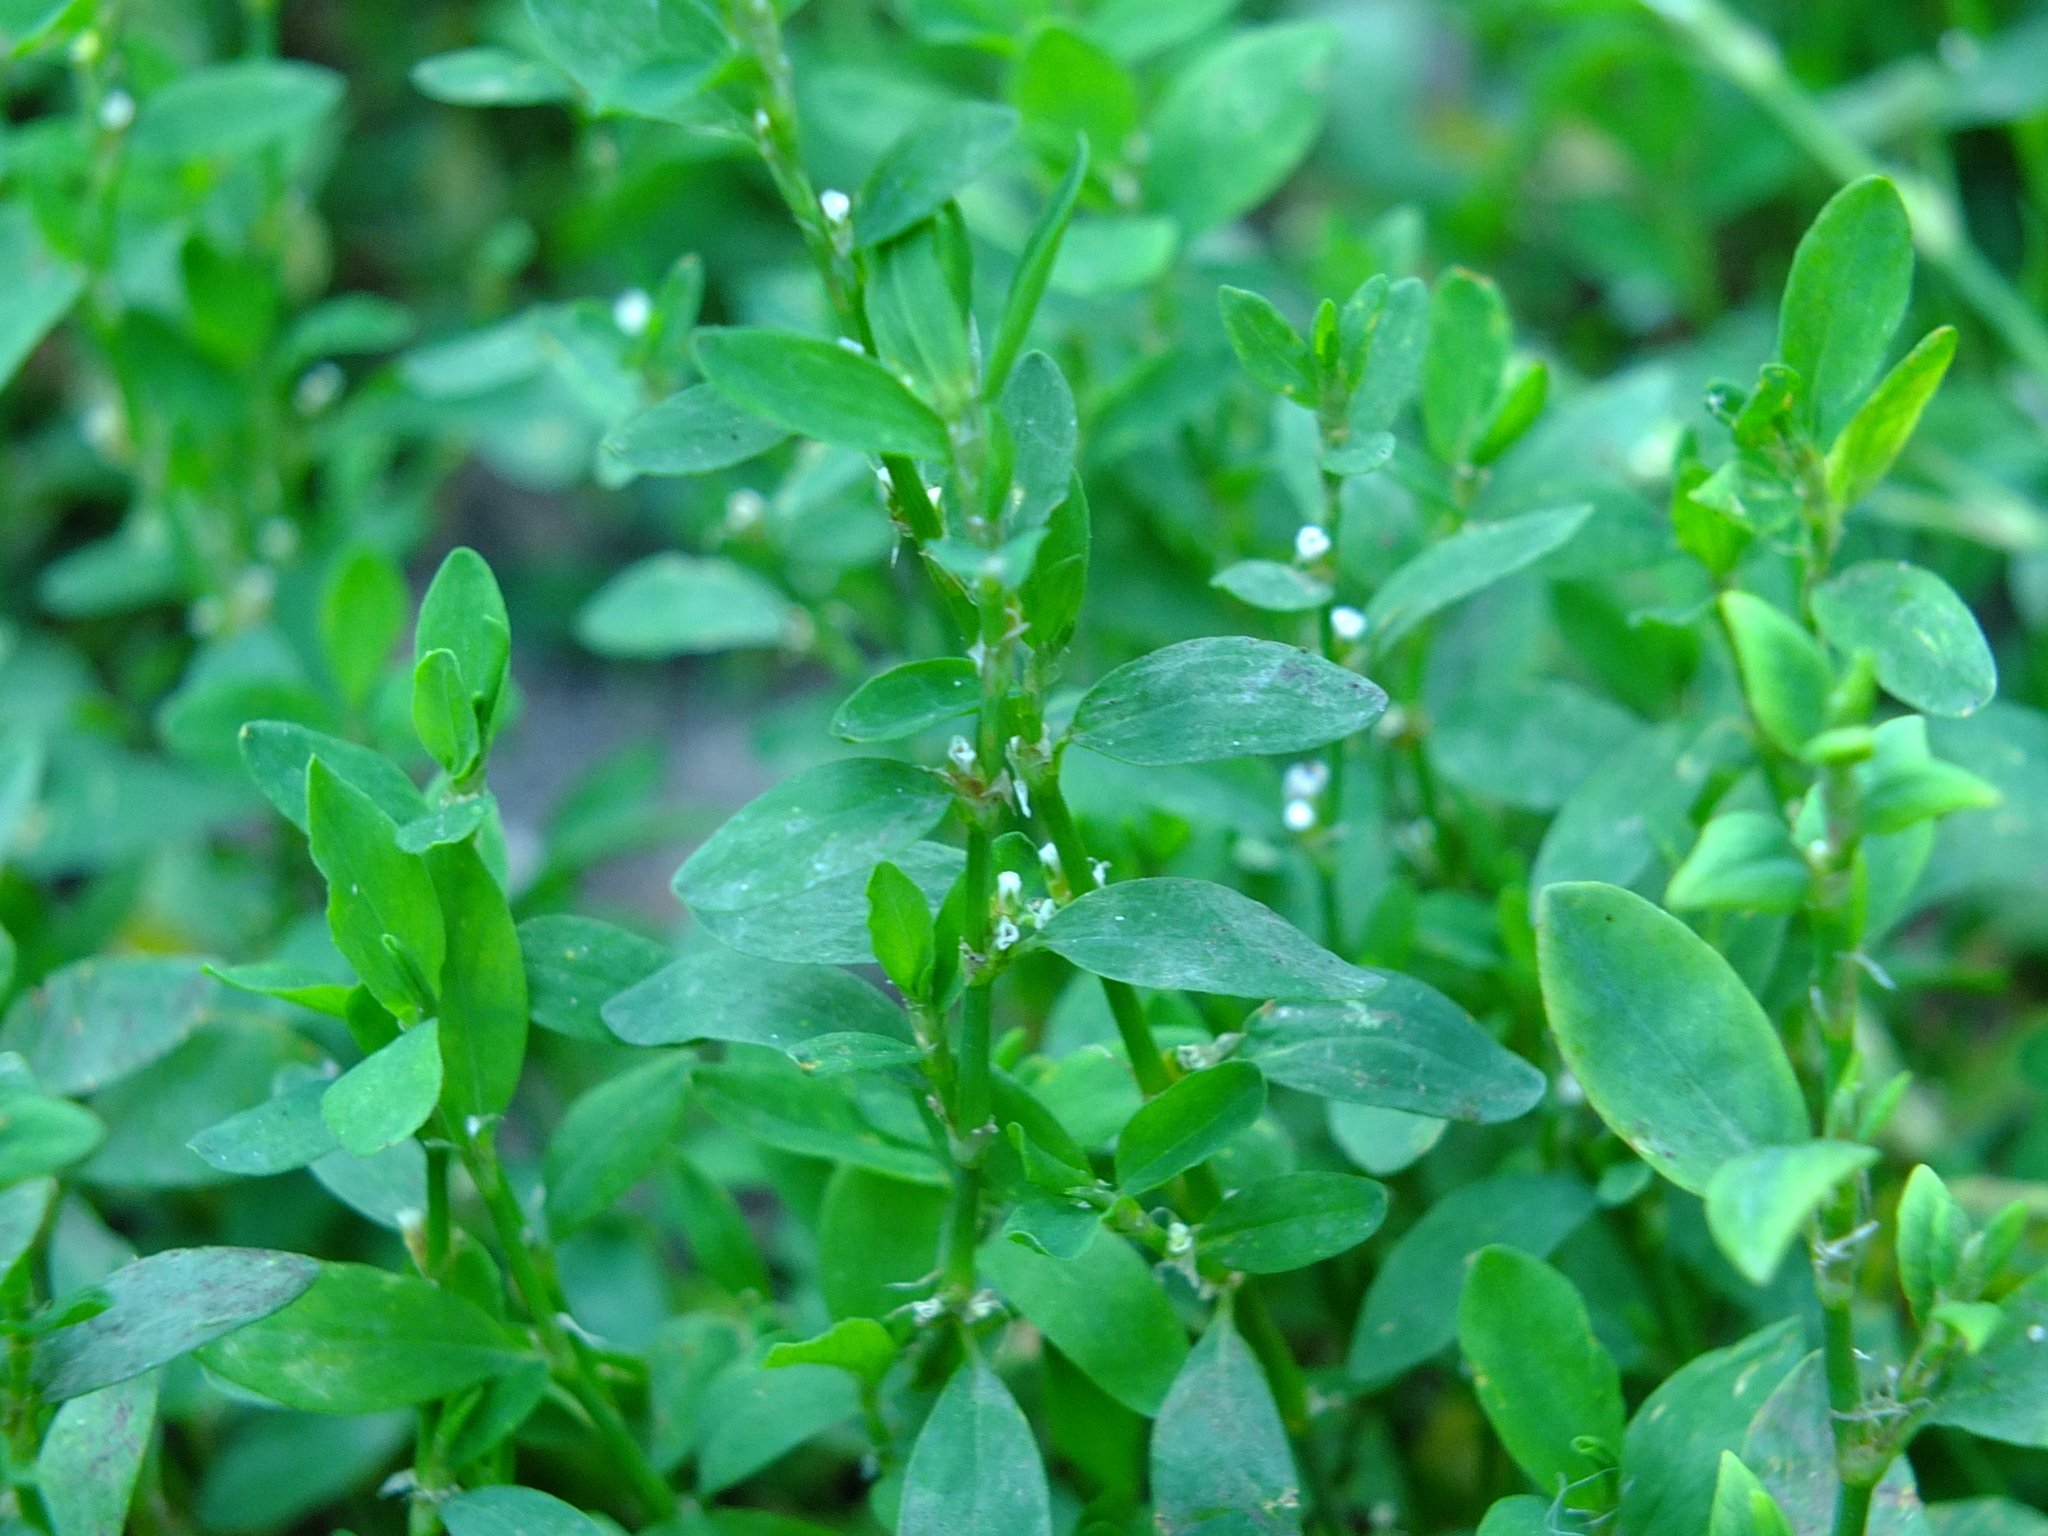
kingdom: Plantae
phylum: Tracheophyta
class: Magnoliopsida
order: Caryophyllales
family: Polygonaceae
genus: Polygonum
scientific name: Polygonum
